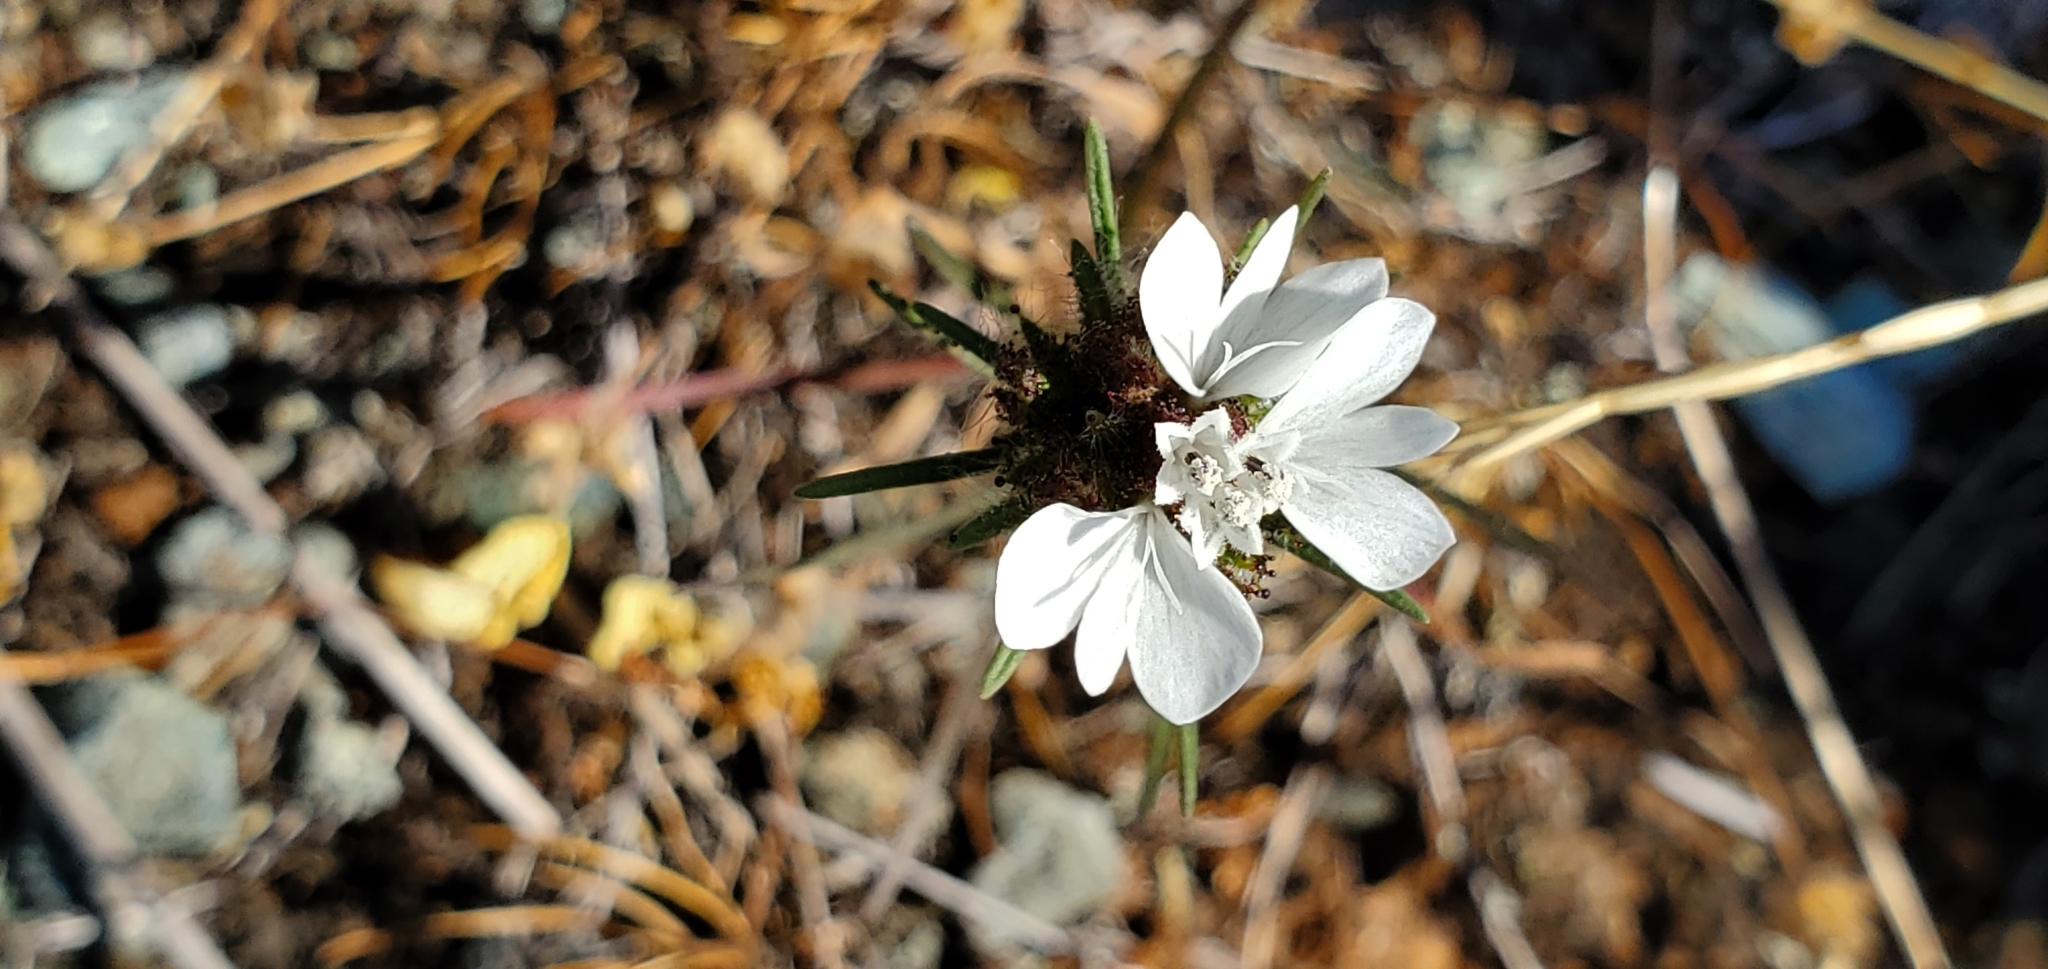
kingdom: Plantae
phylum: Tracheophyta
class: Magnoliopsida
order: Asterales
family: Asteraceae
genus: Calycadenia
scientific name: Calycadenia multiglandulosa
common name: Sticky calycadenia
